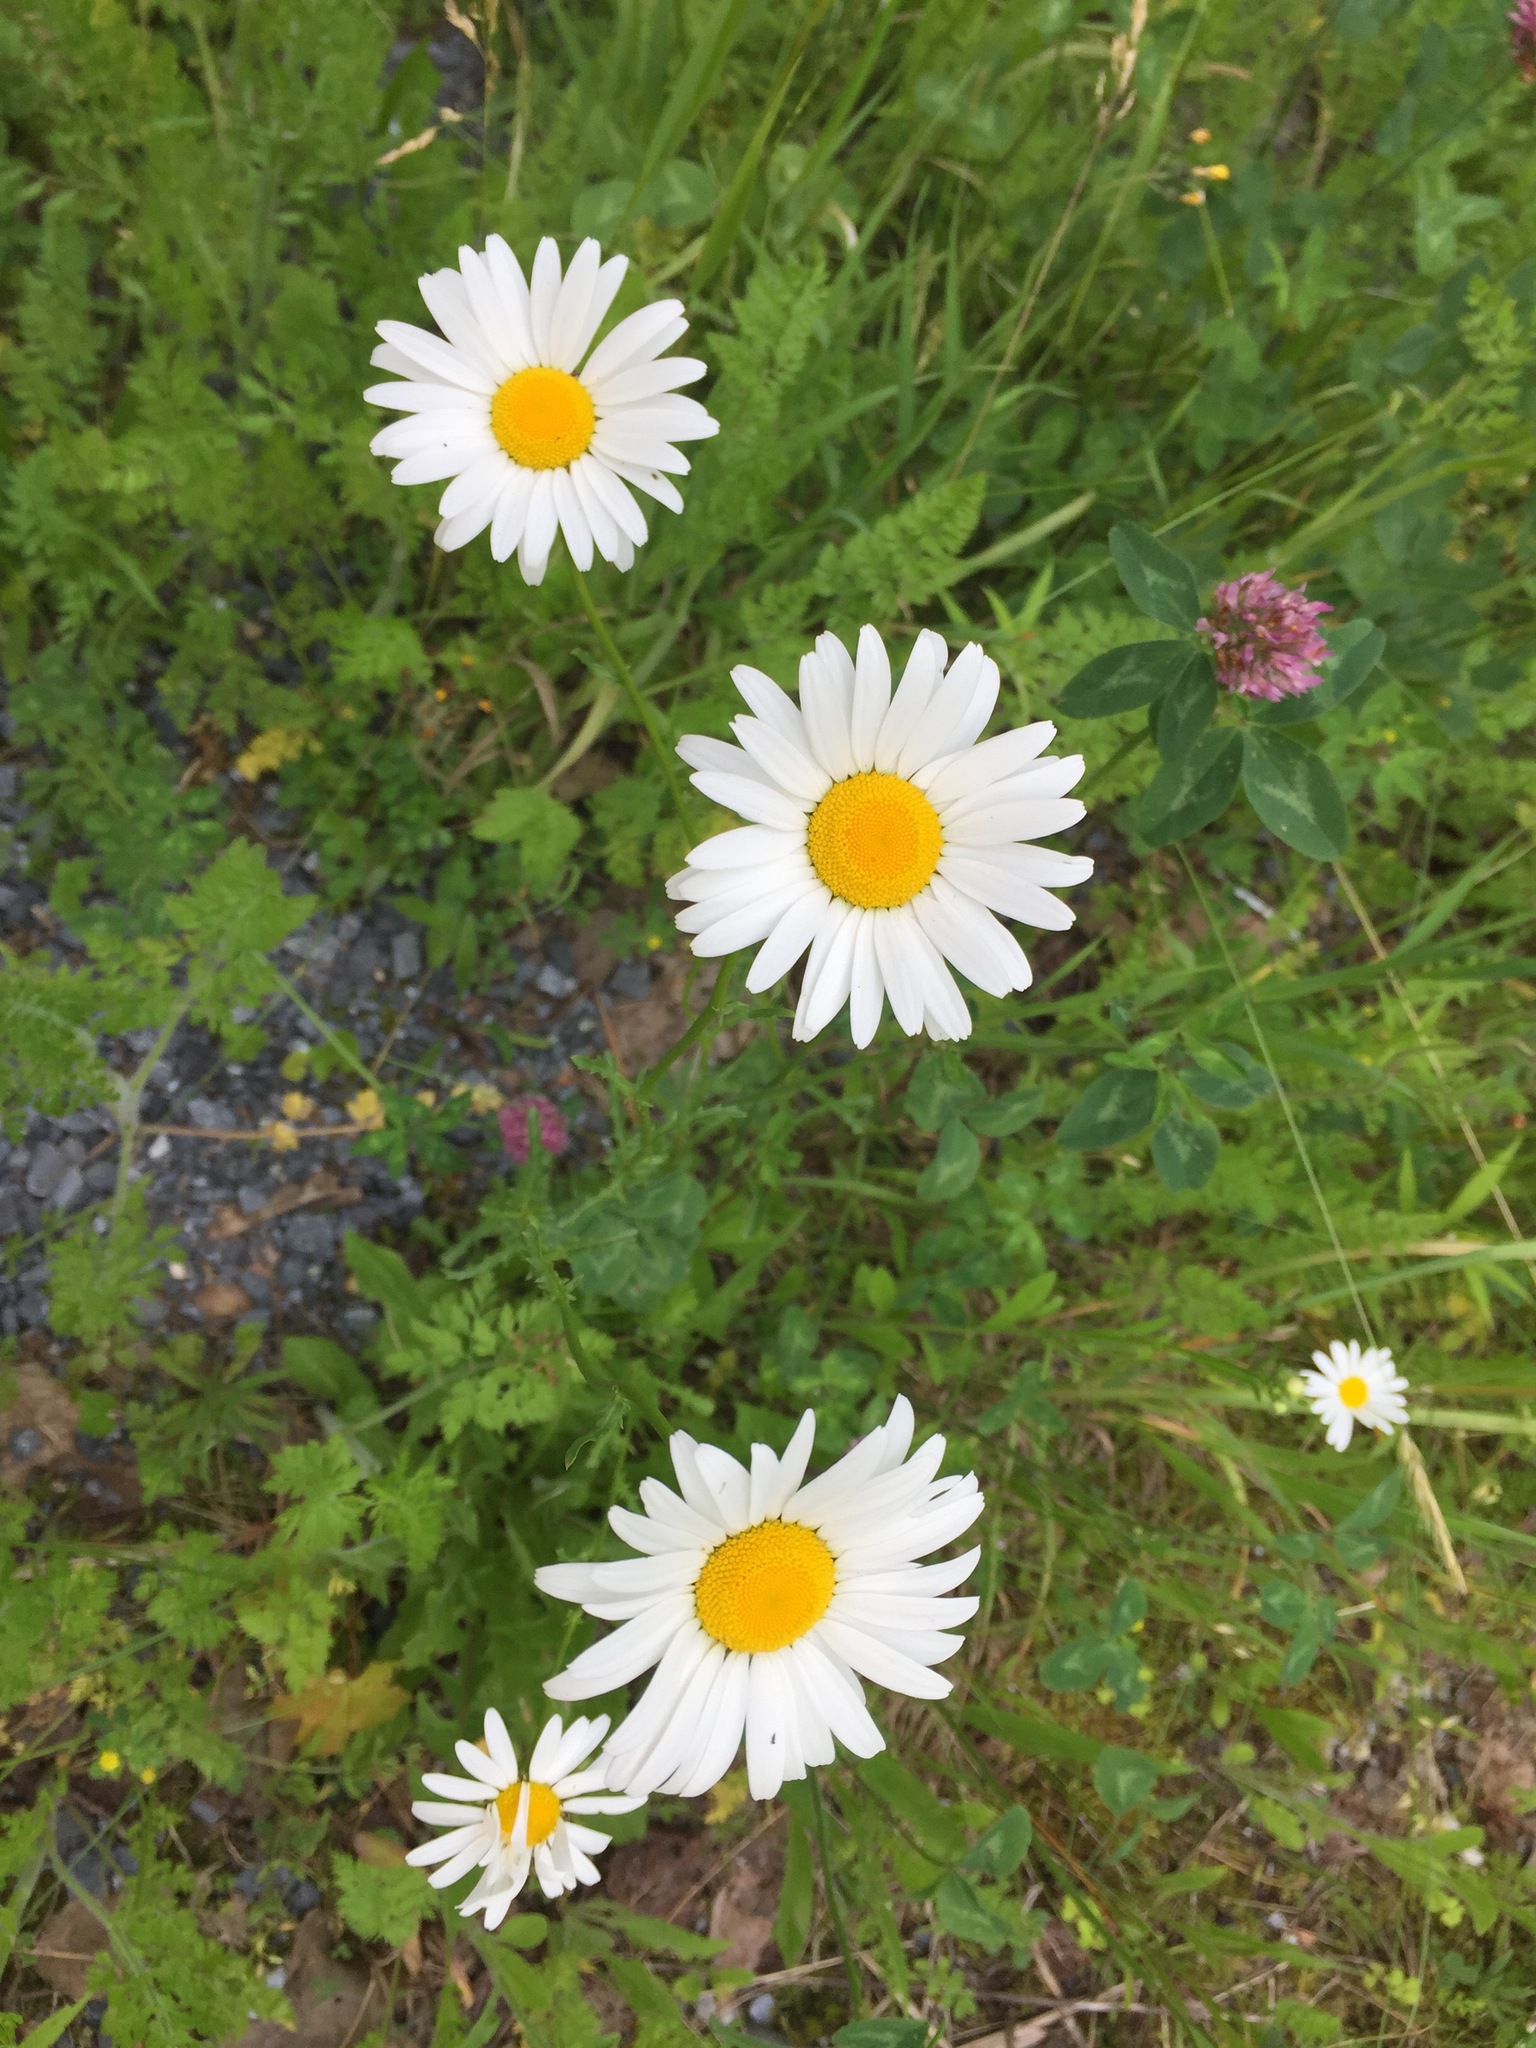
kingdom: Plantae
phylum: Tracheophyta
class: Magnoliopsida
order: Asterales
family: Asteraceae
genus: Leucanthemum
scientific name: Leucanthemum vulgare
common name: Oxeye daisy
